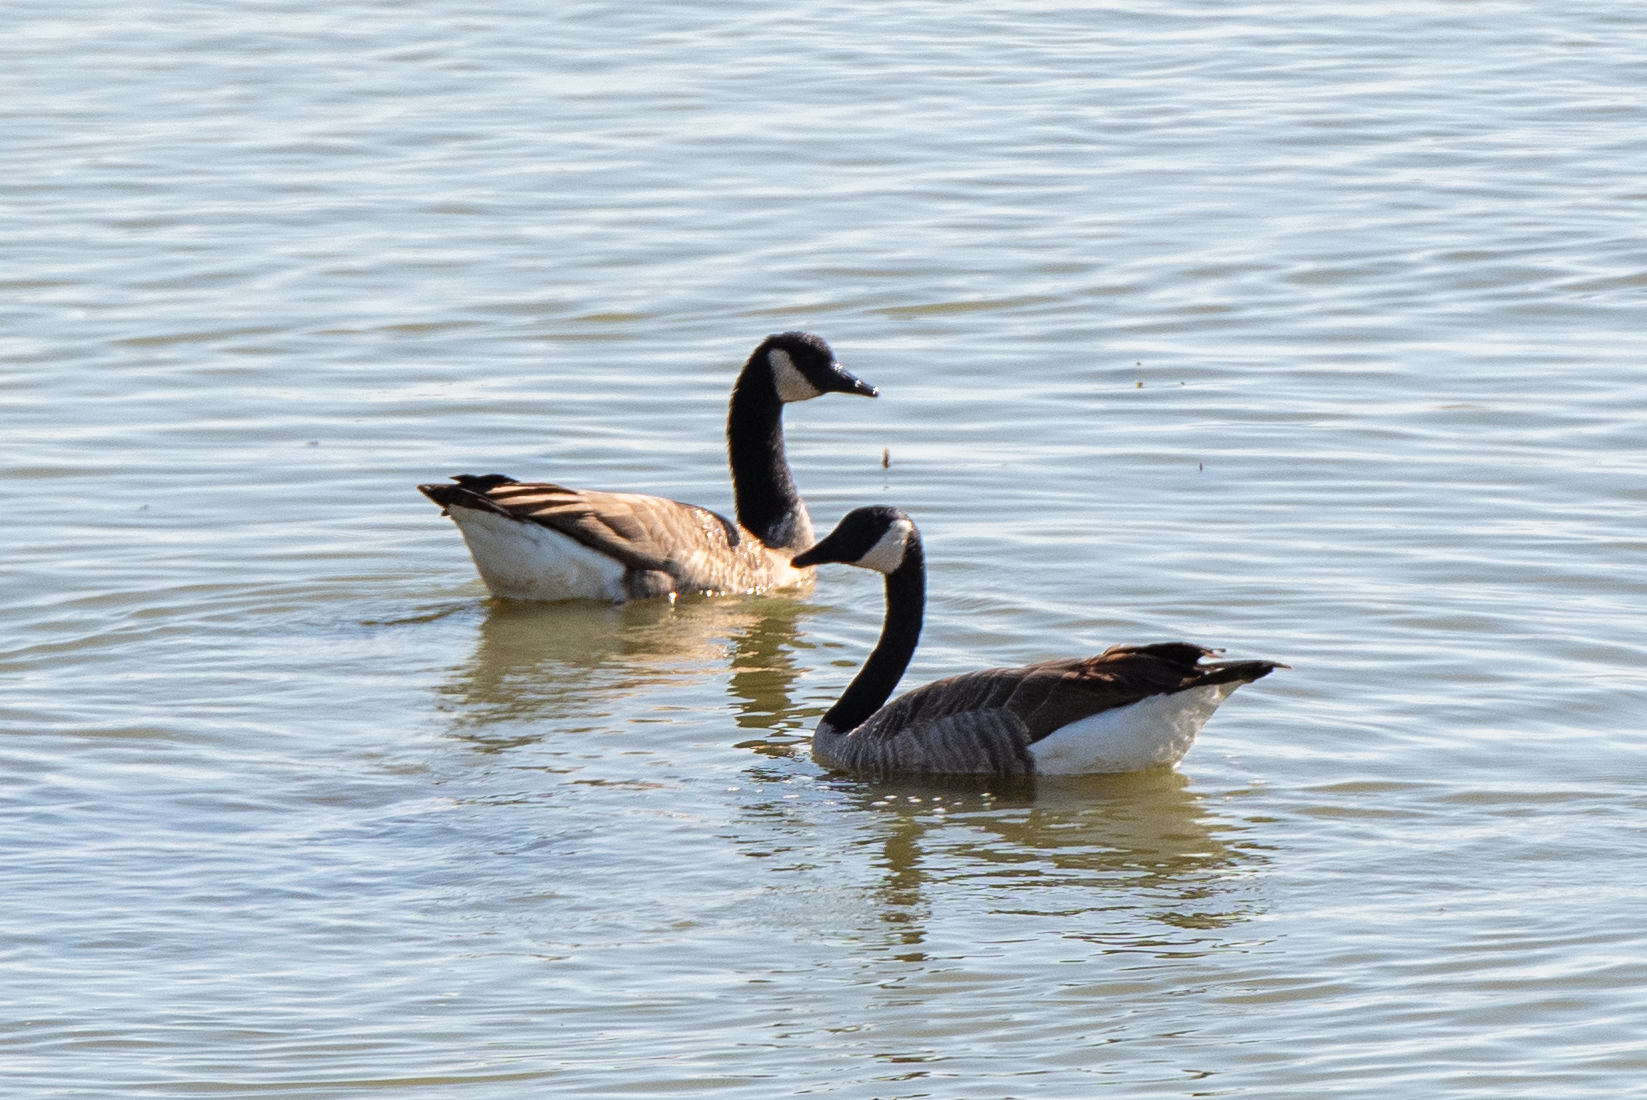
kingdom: Animalia
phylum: Chordata
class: Aves
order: Anseriformes
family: Anatidae
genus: Branta
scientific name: Branta canadensis
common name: Canada goose
